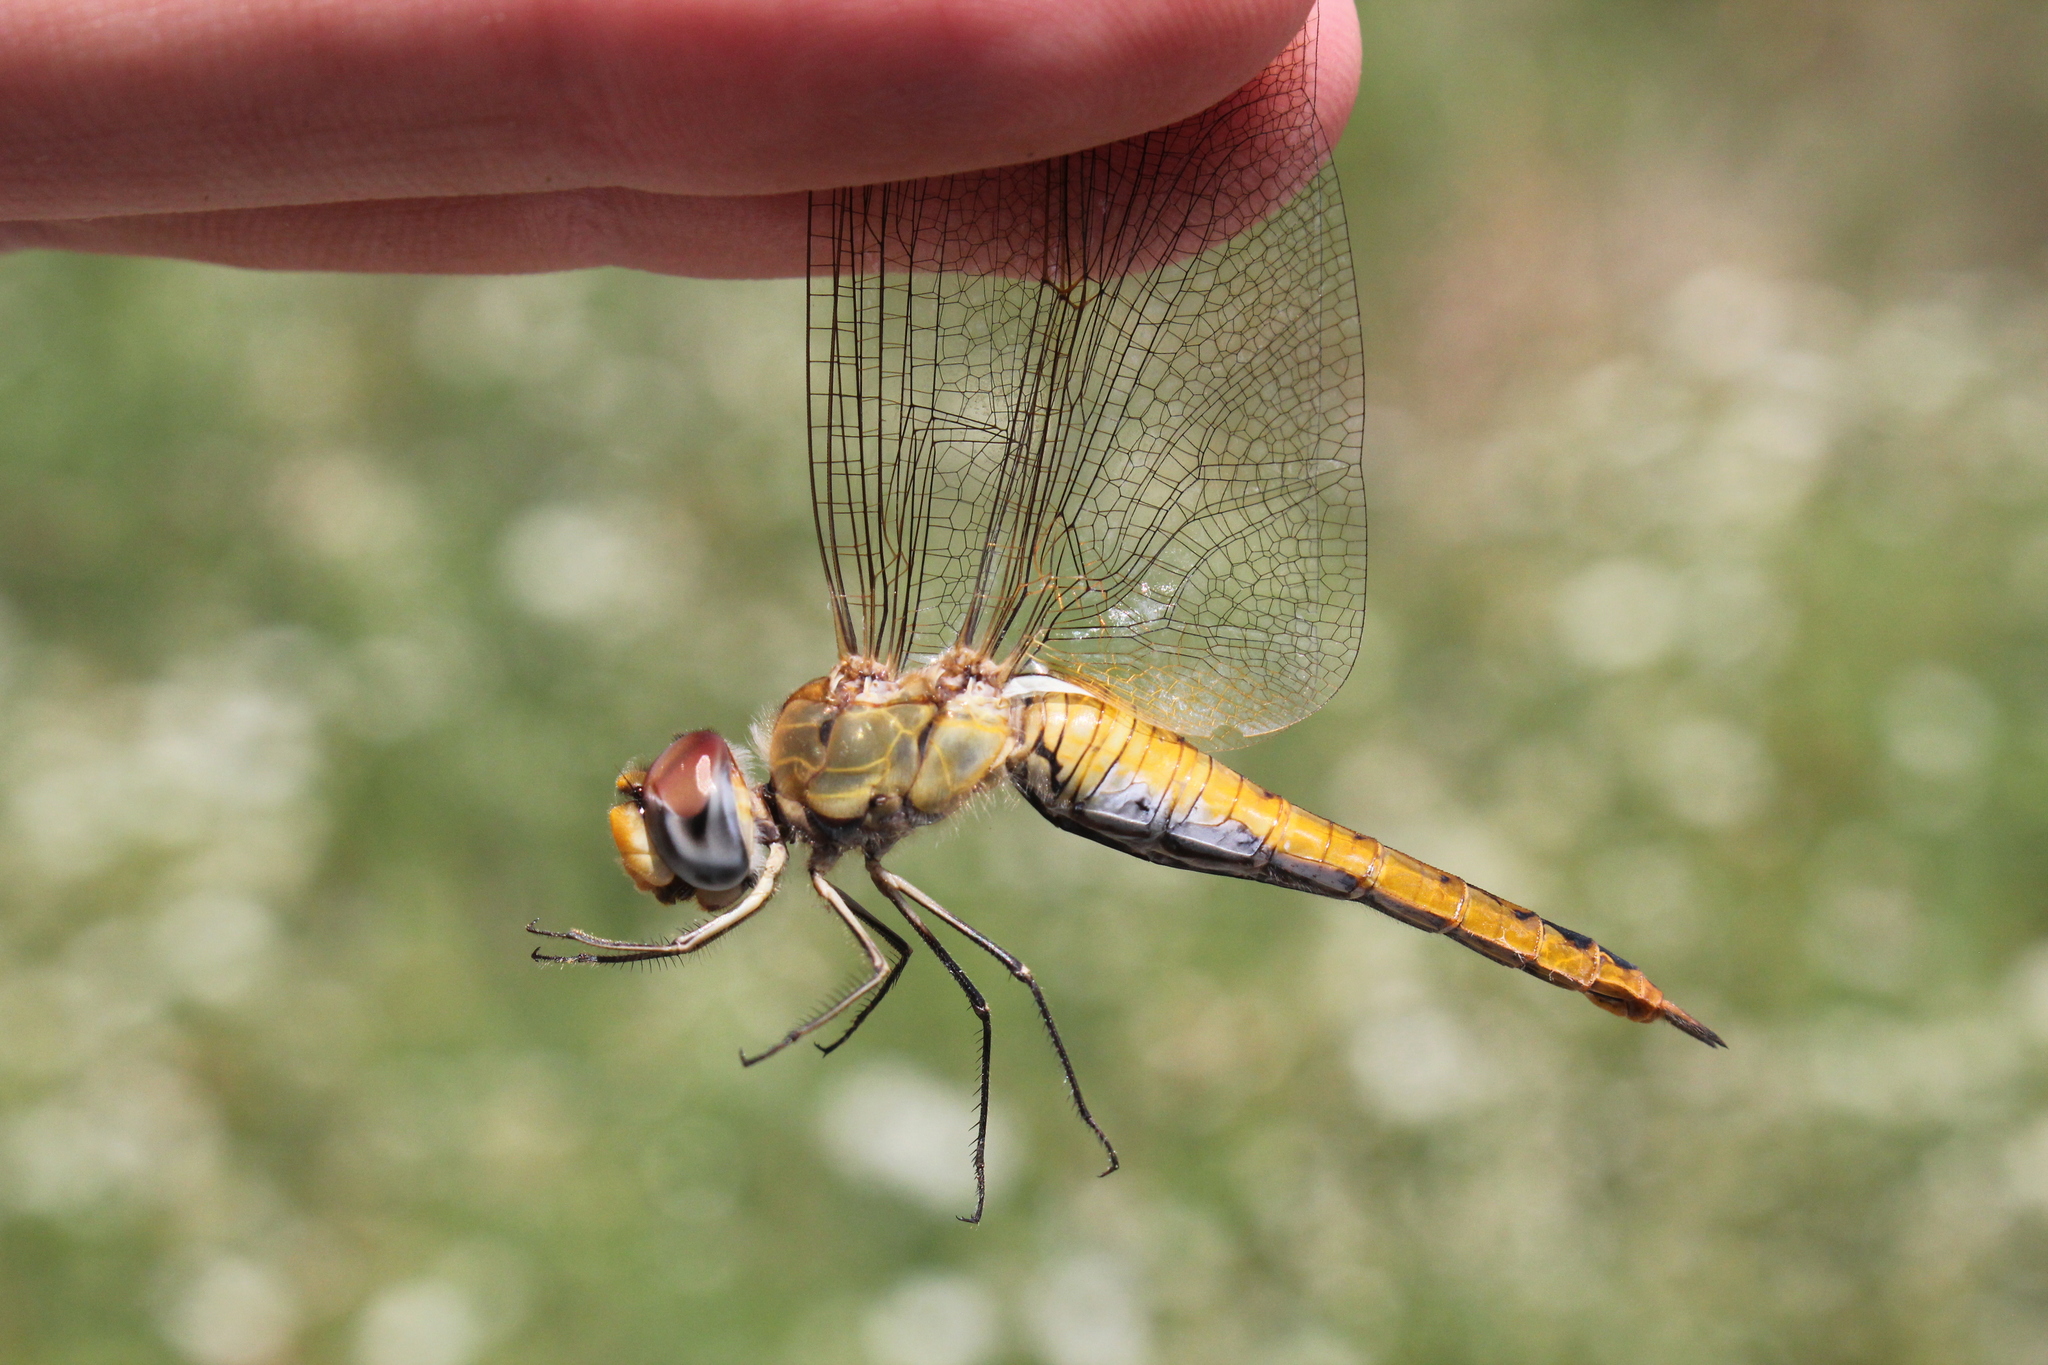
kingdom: Animalia
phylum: Arthropoda
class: Insecta
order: Odonata
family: Libellulidae
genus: Pantala
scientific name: Pantala flavescens
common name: Wandering glider
